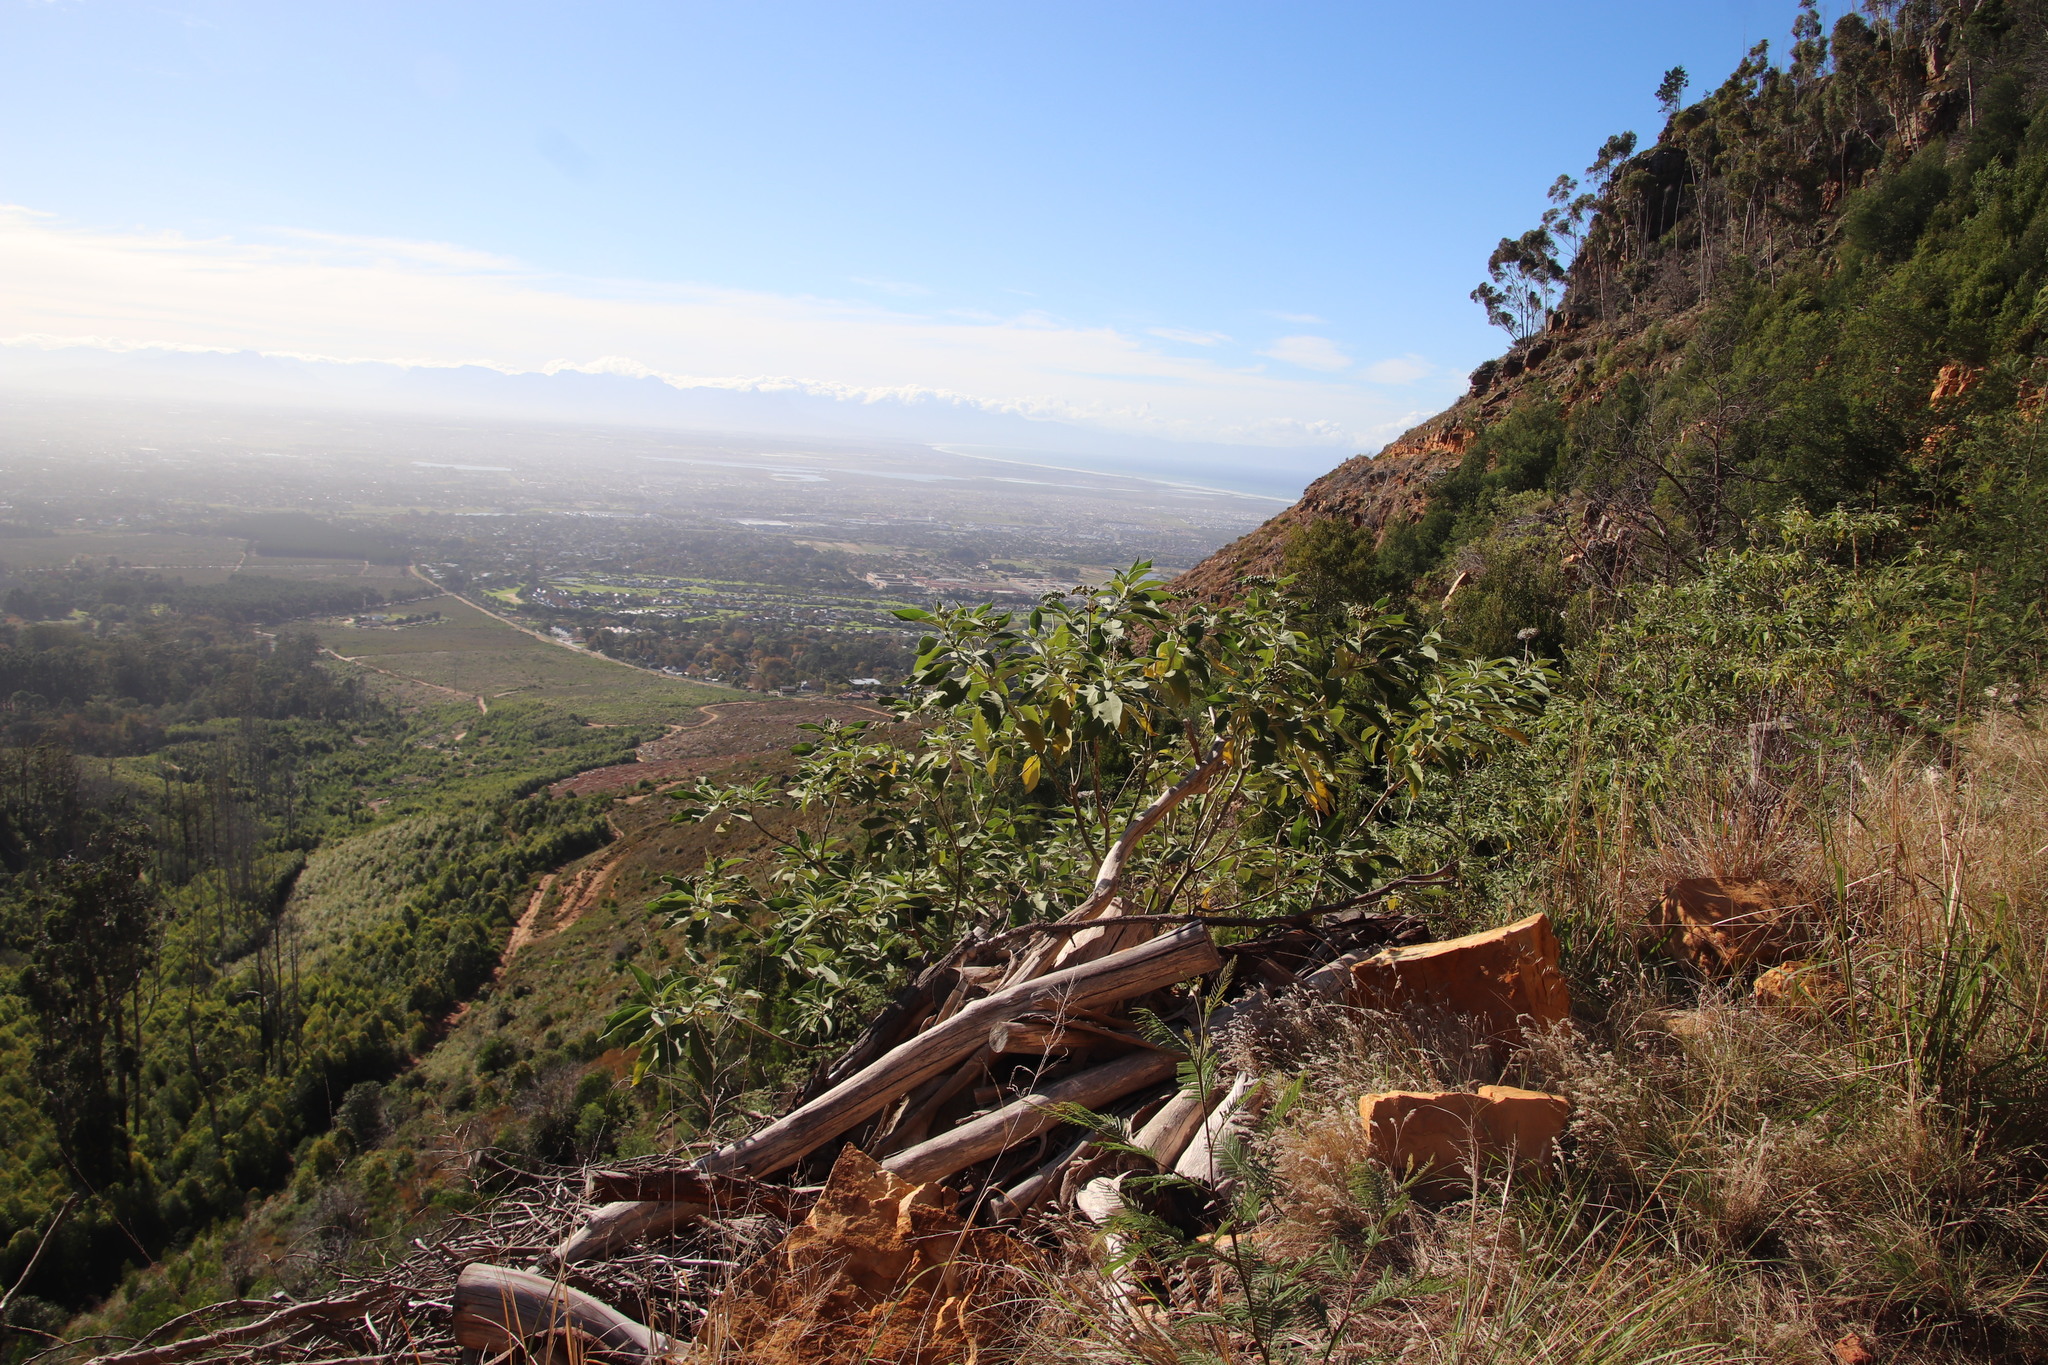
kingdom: Plantae
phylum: Tracheophyta
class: Magnoliopsida
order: Solanales
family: Solanaceae
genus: Solanum
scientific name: Solanum mauritianum
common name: Earleaf nightshade
